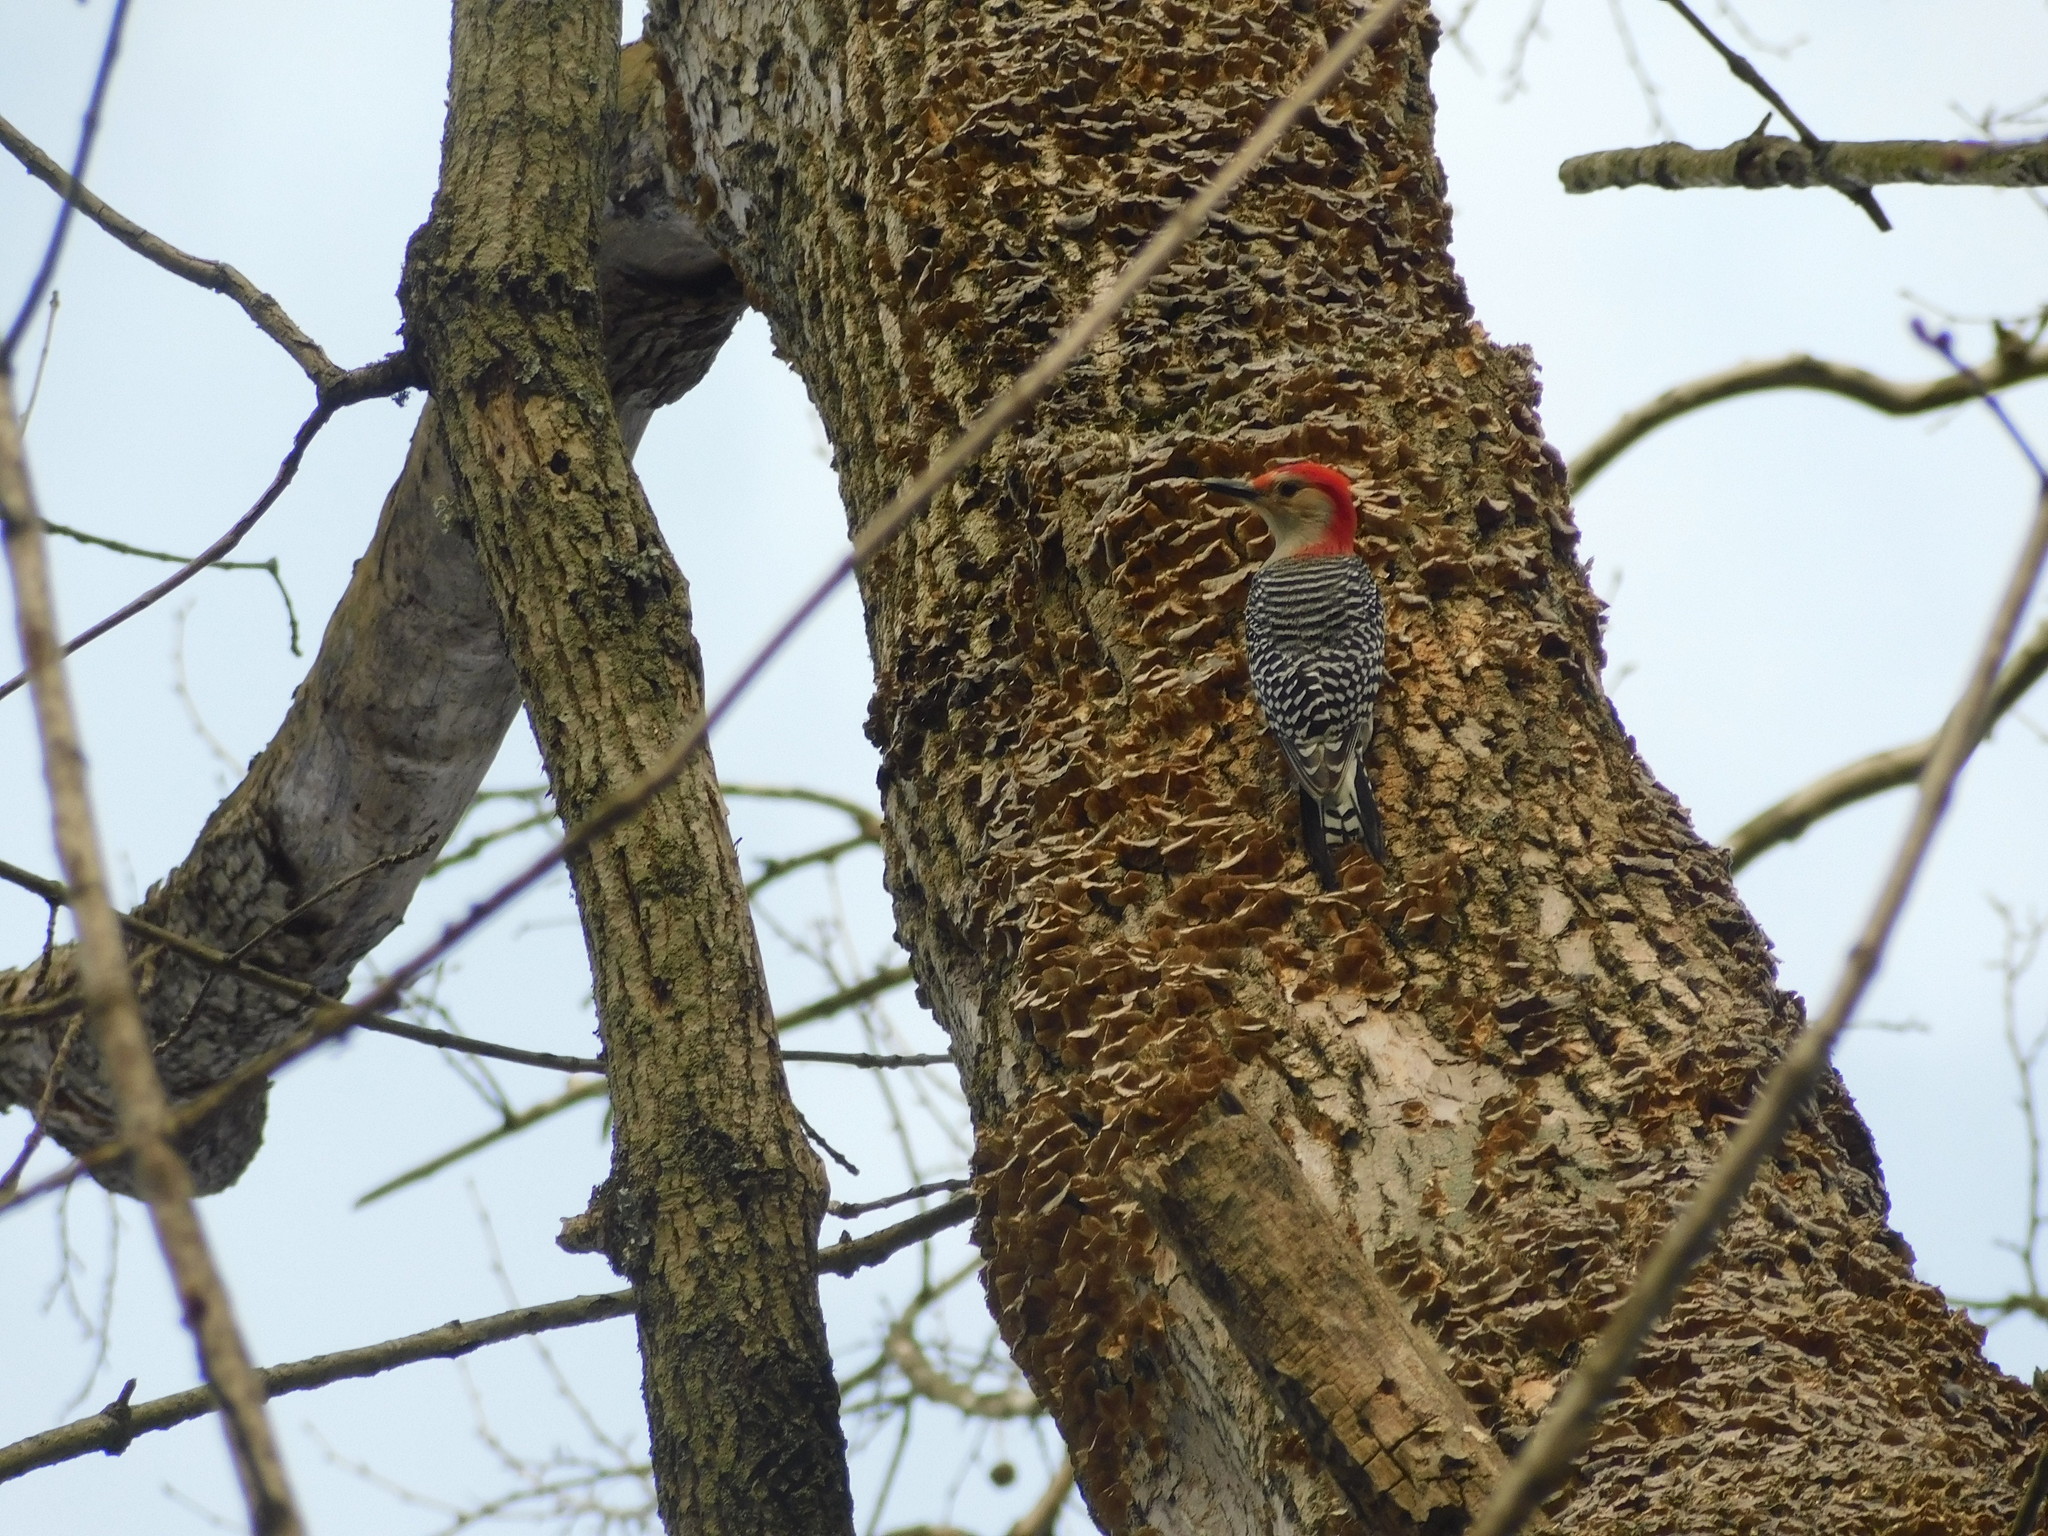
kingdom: Animalia
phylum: Chordata
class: Aves
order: Piciformes
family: Picidae
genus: Melanerpes
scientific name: Melanerpes carolinus
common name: Red-bellied woodpecker
